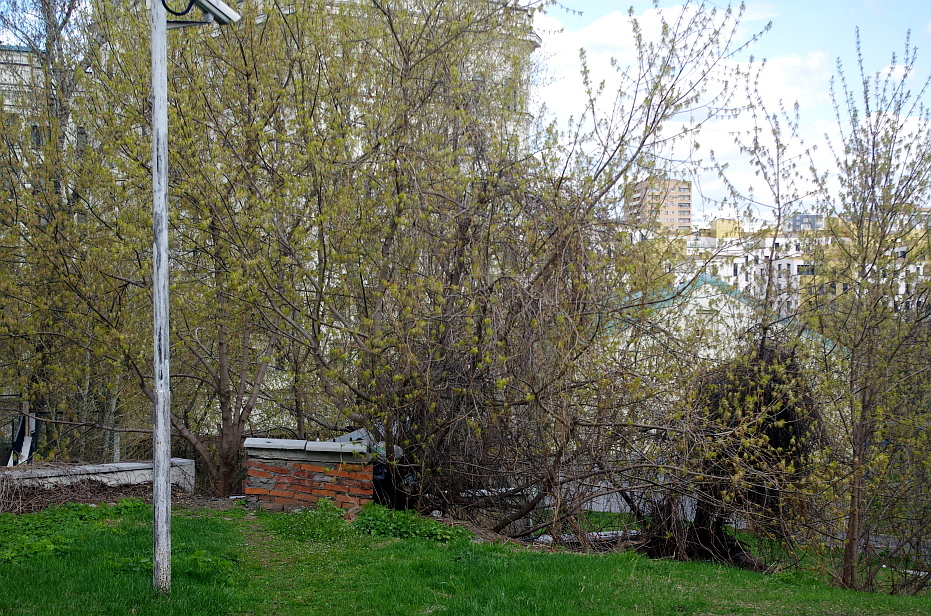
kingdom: Plantae
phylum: Tracheophyta
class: Magnoliopsida
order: Sapindales
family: Sapindaceae
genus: Acer
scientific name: Acer negundo
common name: Ashleaf maple
